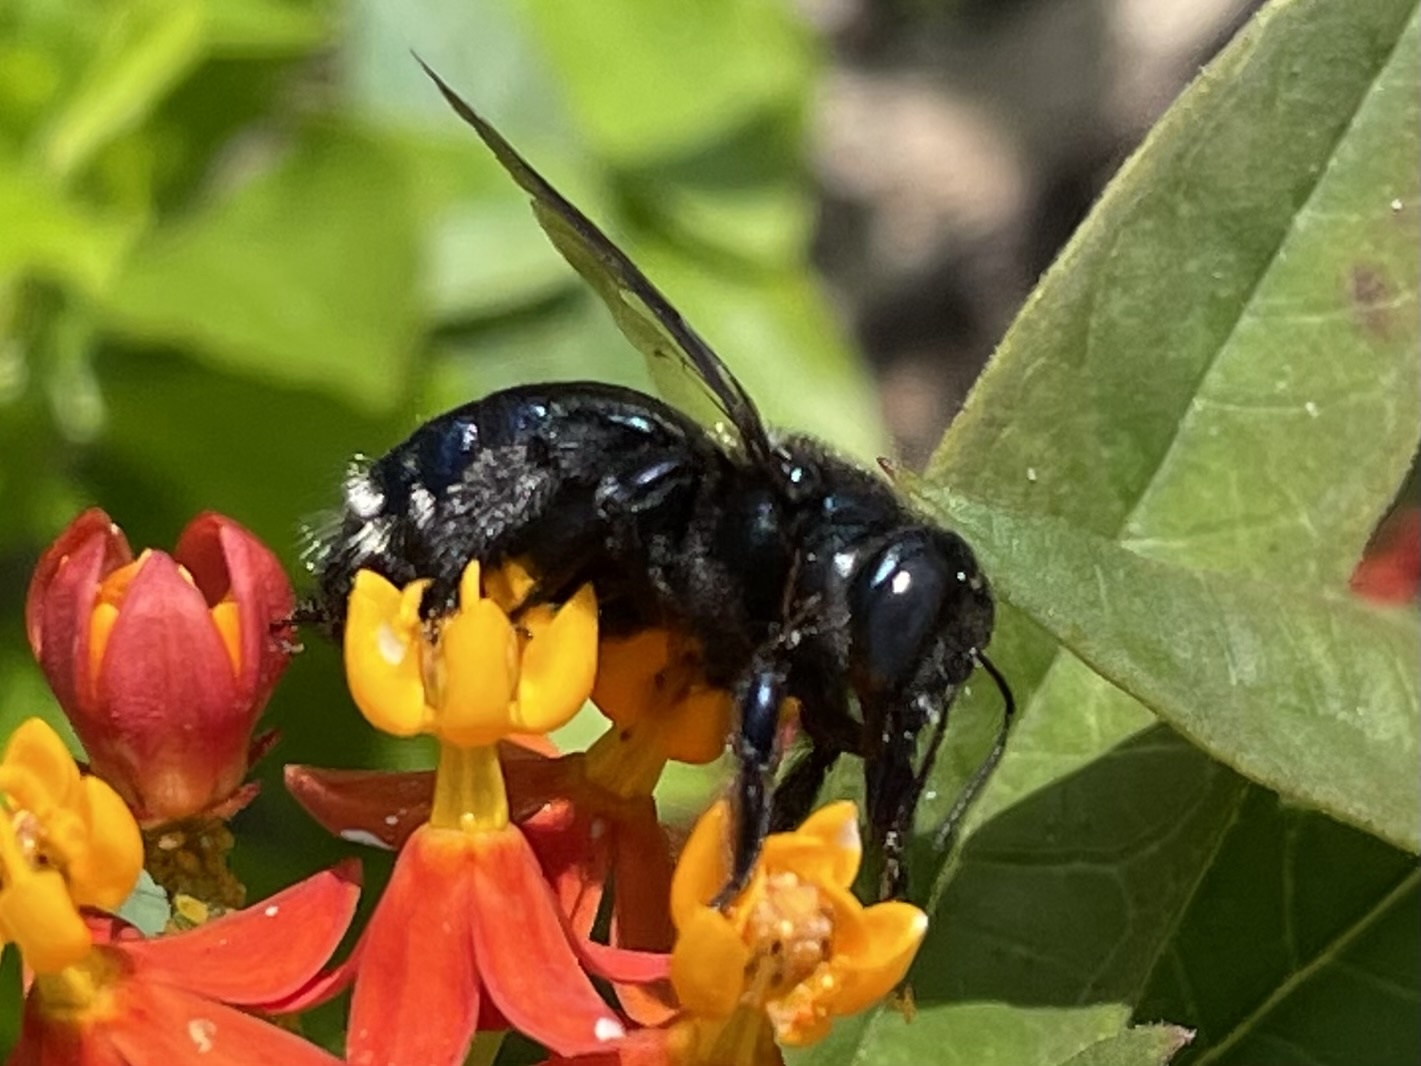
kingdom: Animalia
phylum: Arthropoda
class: Insecta
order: Hymenoptera
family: Apidae
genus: Xylocopa
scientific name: Xylocopa micans
